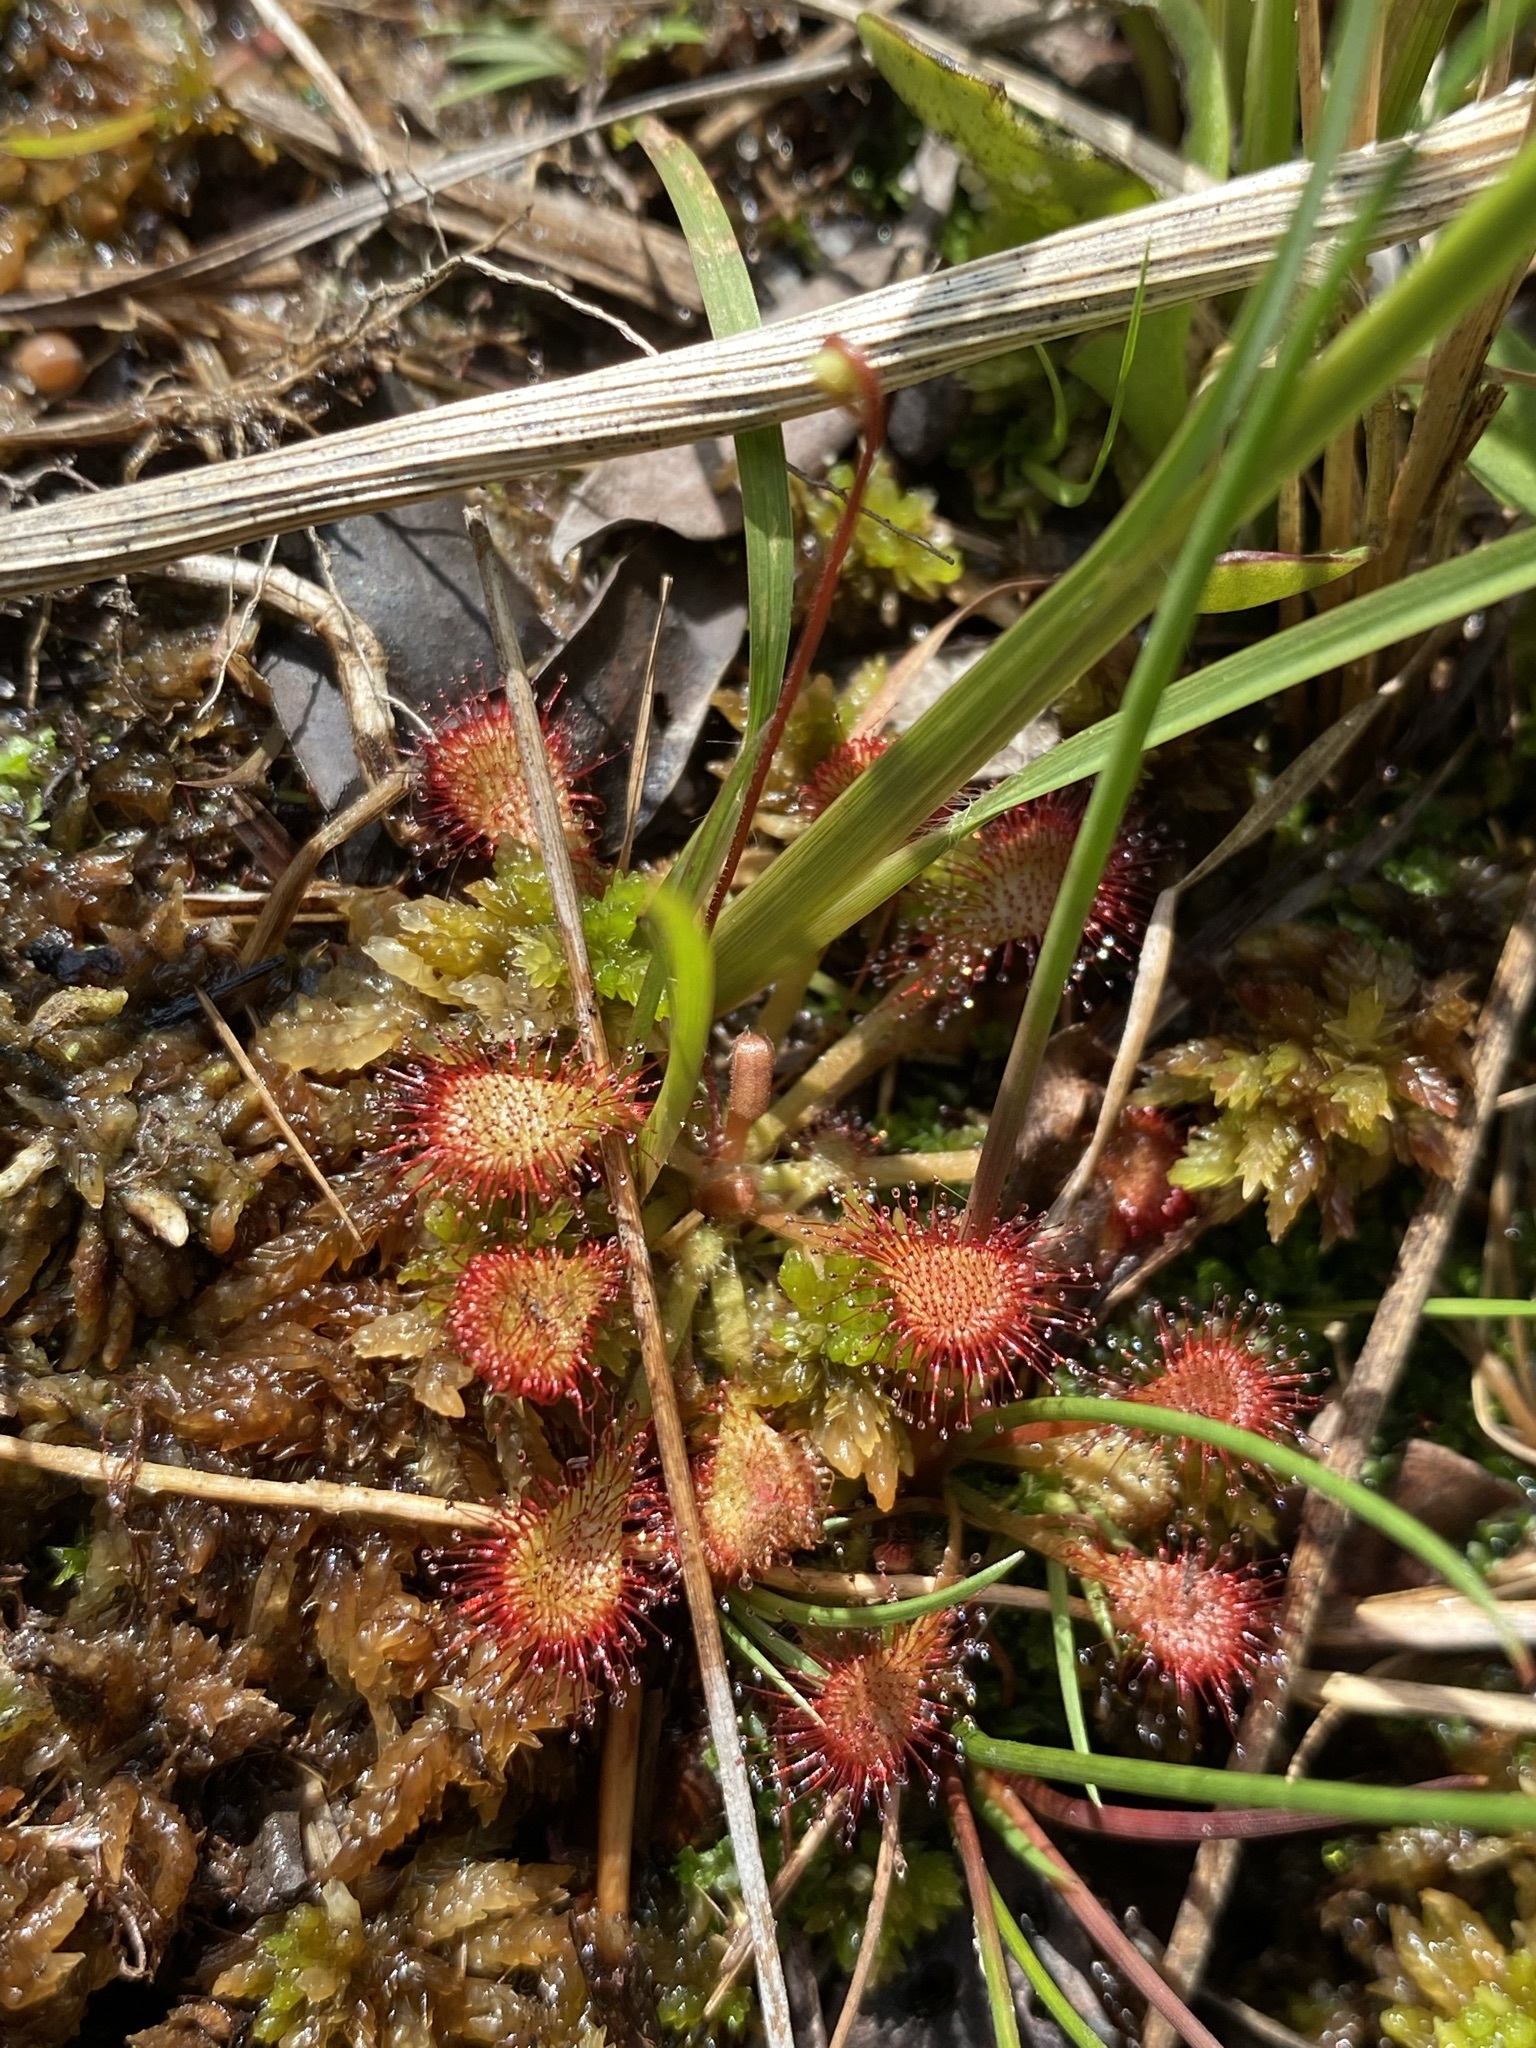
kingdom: Plantae
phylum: Tracheophyta
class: Magnoliopsida
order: Caryophyllales
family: Droseraceae
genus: Drosera
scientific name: Drosera capillaris
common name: Pink sundew
